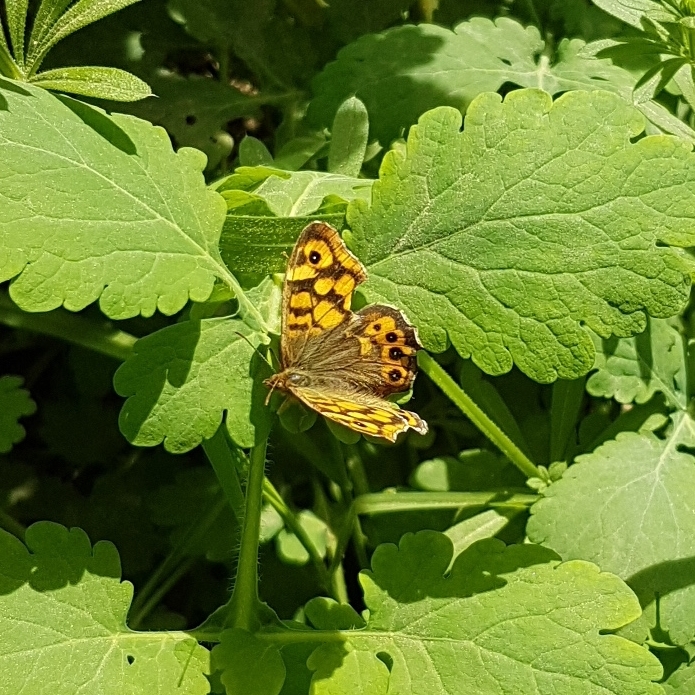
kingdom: Animalia
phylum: Arthropoda
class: Insecta
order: Lepidoptera
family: Nymphalidae
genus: Pararge
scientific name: Pararge aegeria
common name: Speckled wood
